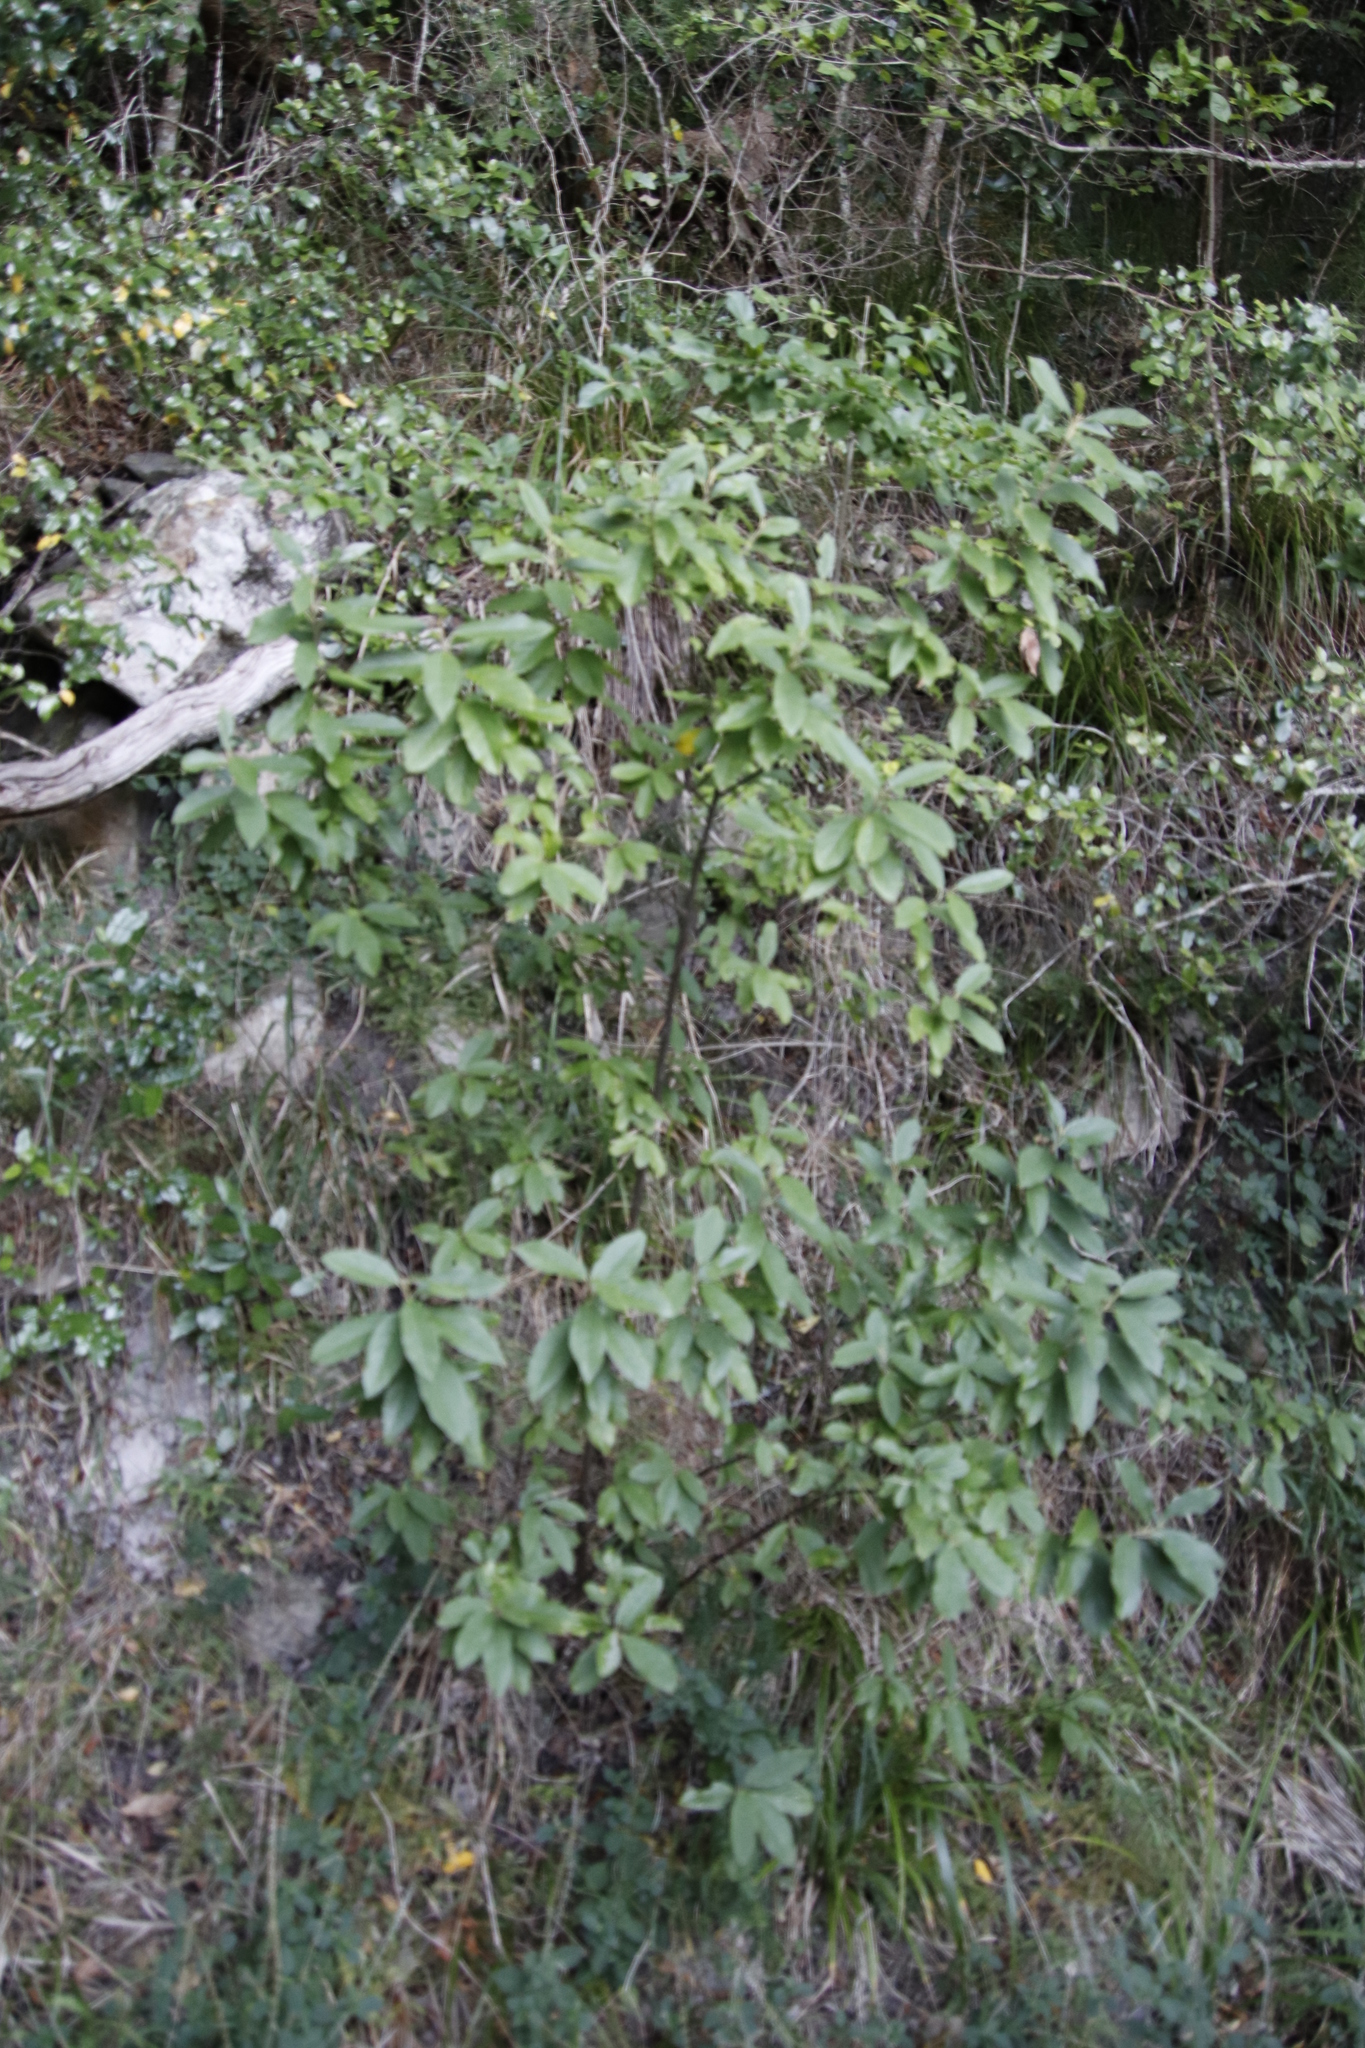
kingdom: Plantae
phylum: Tracheophyta
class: Magnoliopsida
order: Malpighiales
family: Achariaceae
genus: Kiggelaria
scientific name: Kiggelaria africana
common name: Wild peach
